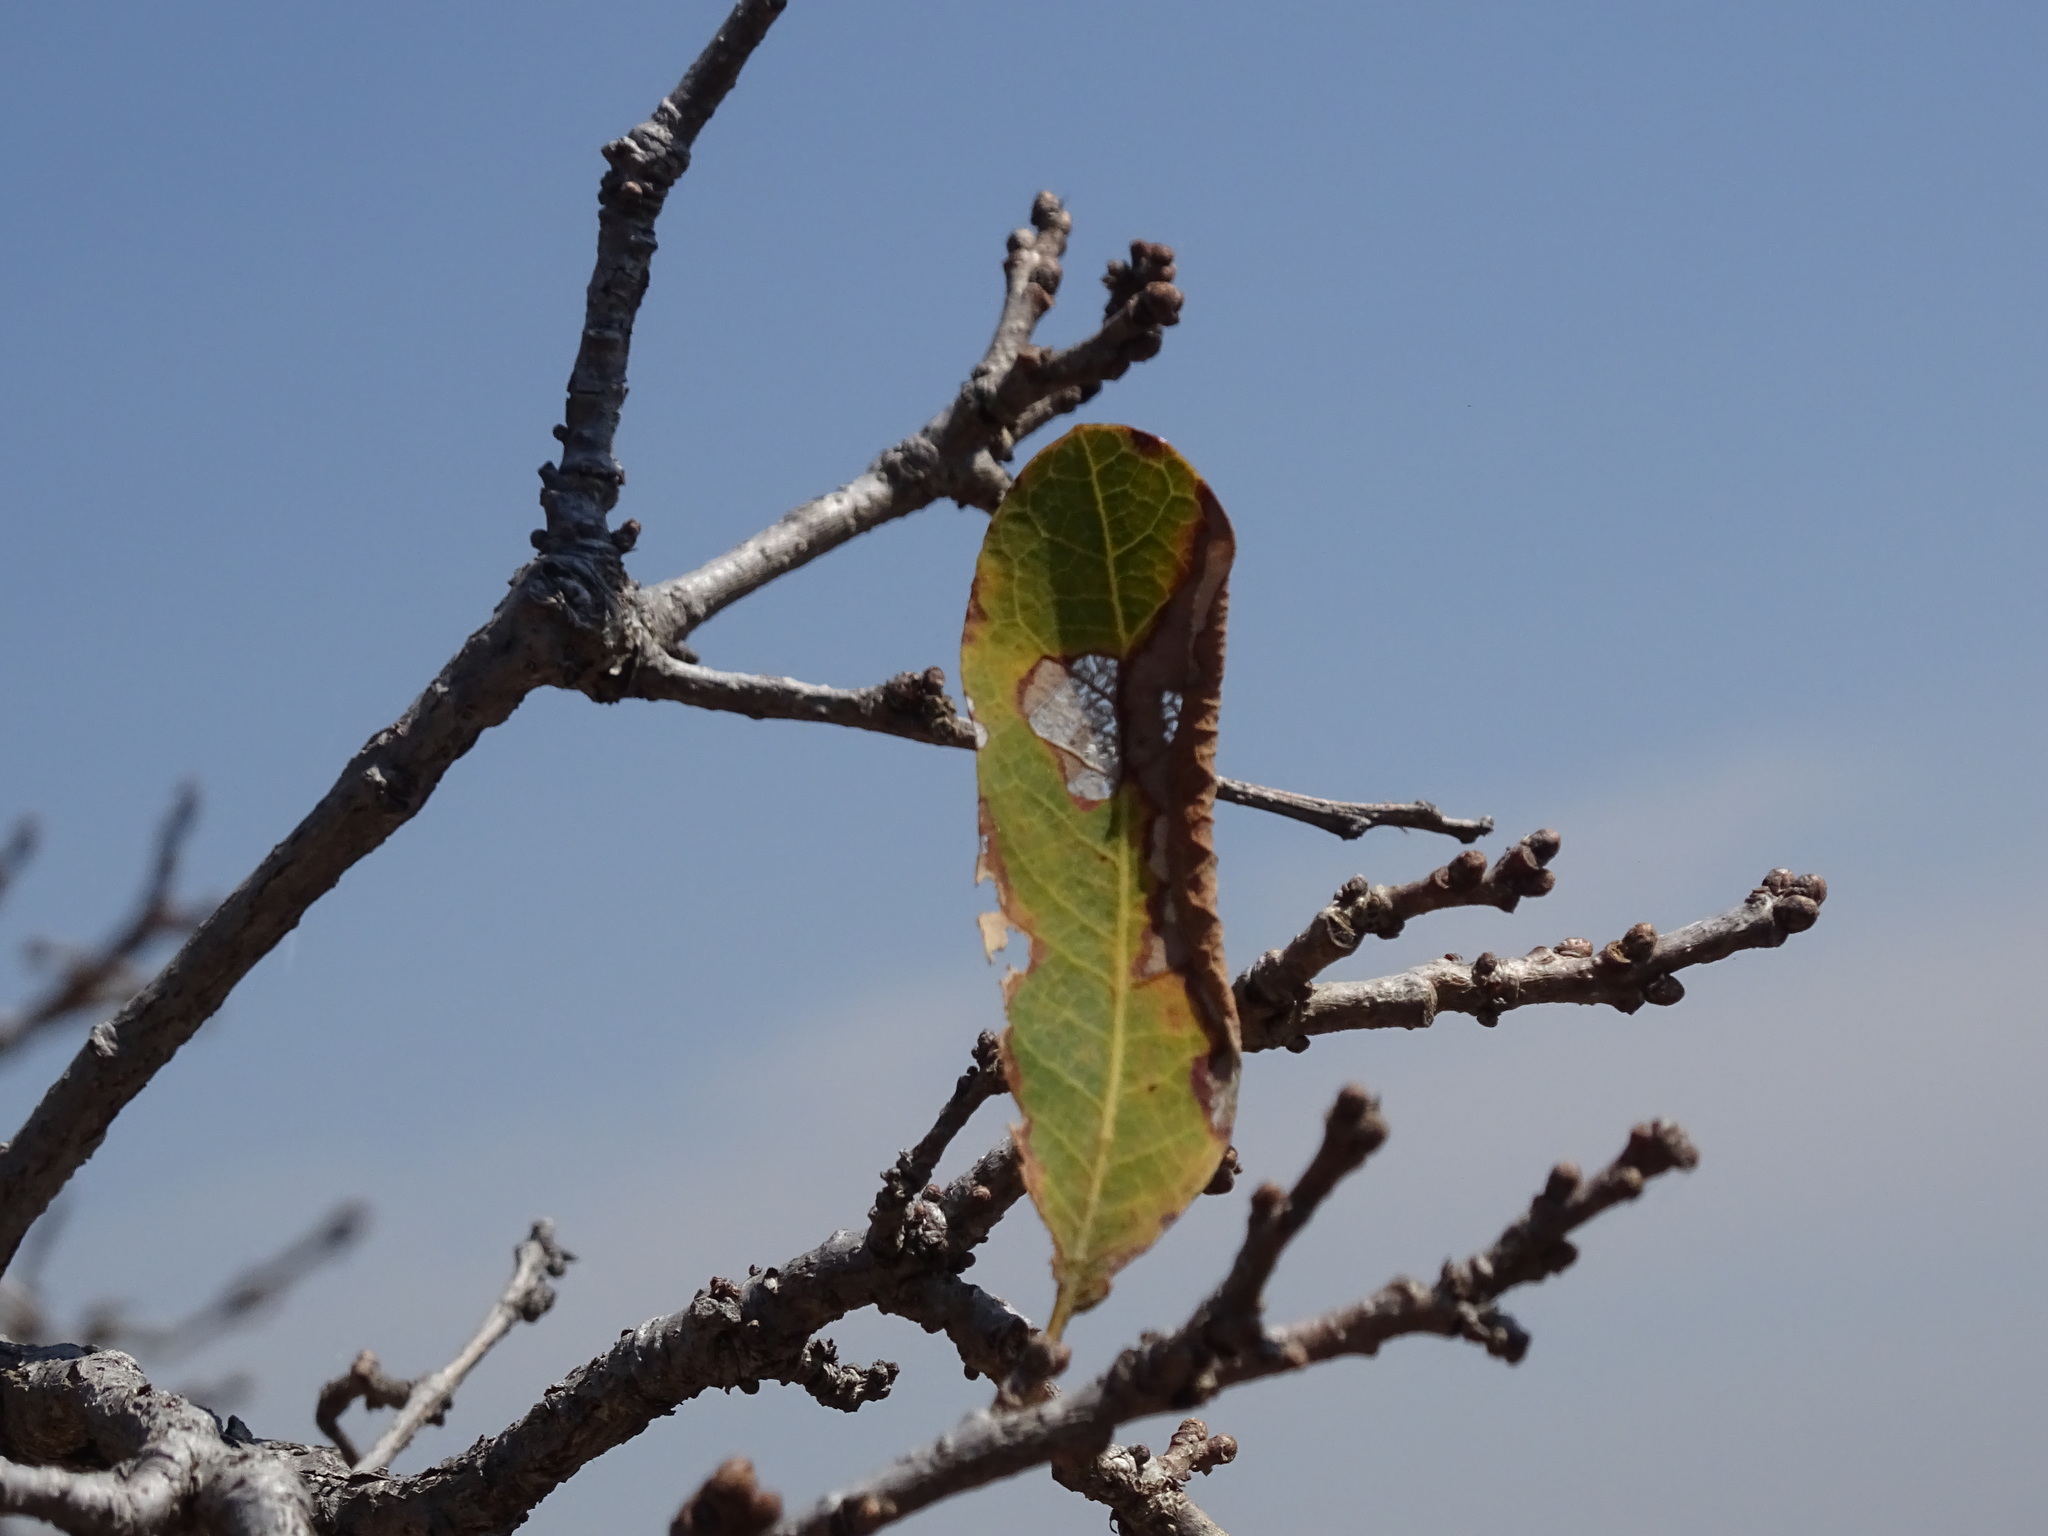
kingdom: Plantae
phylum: Tracheophyta
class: Magnoliopsida
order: Fagales
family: Fagaceae
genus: Quercus
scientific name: Quercus elliptica
